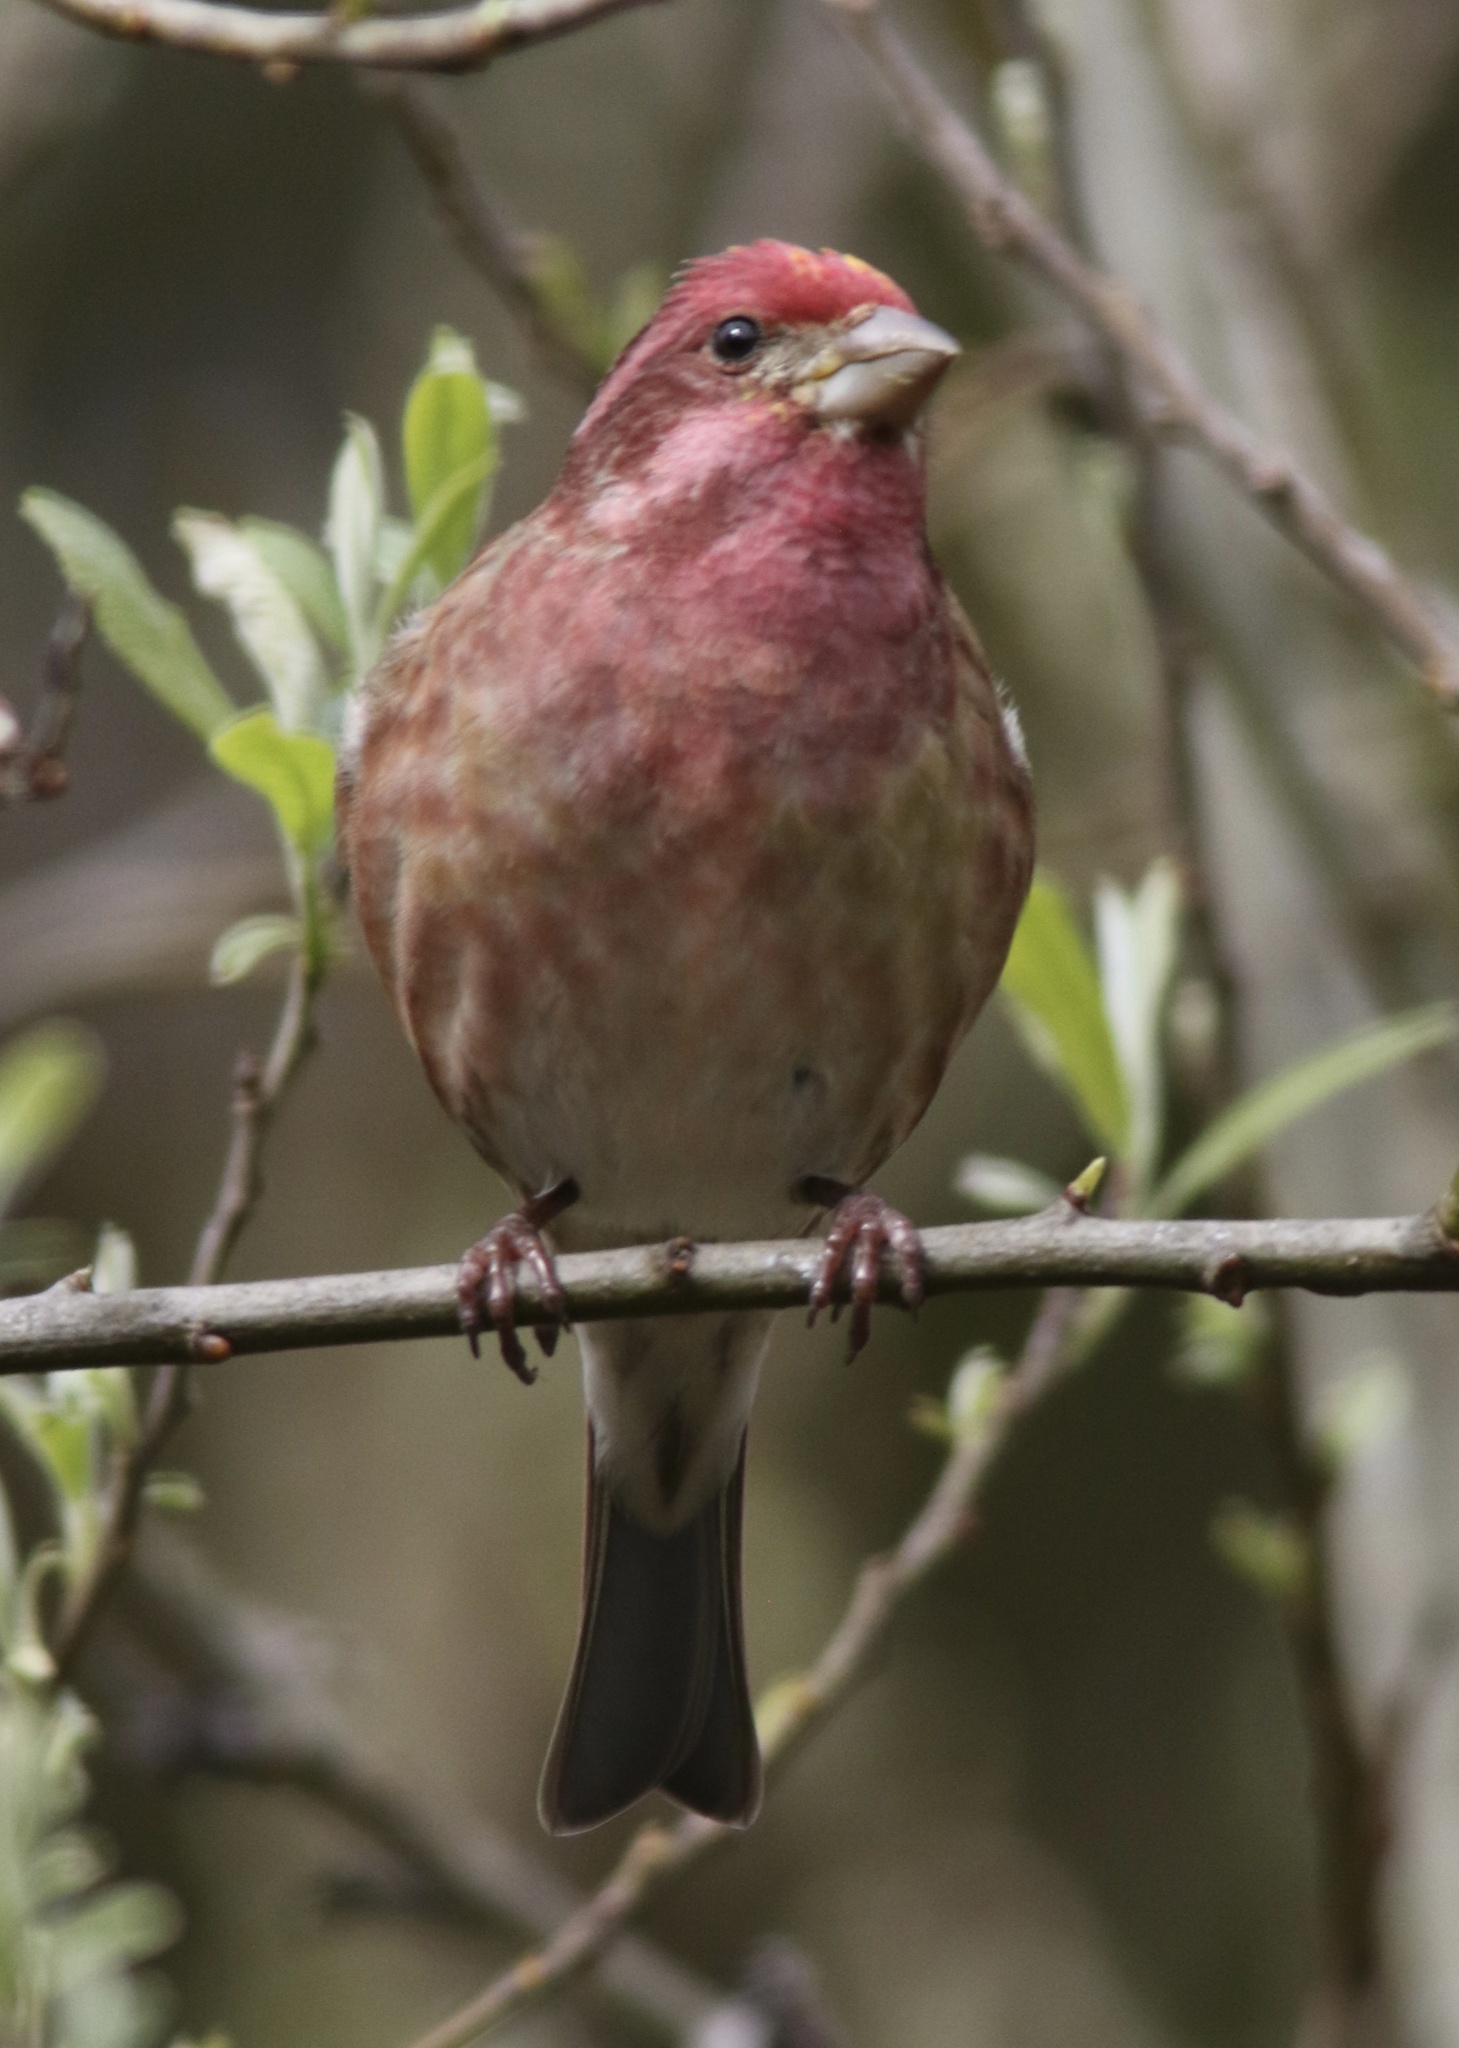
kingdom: Animalia
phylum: Chordata
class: Aves
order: Passeriformes
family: Fringillidae
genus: Haemorhous
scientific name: Haemorhous purpureus
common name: Purple finch
